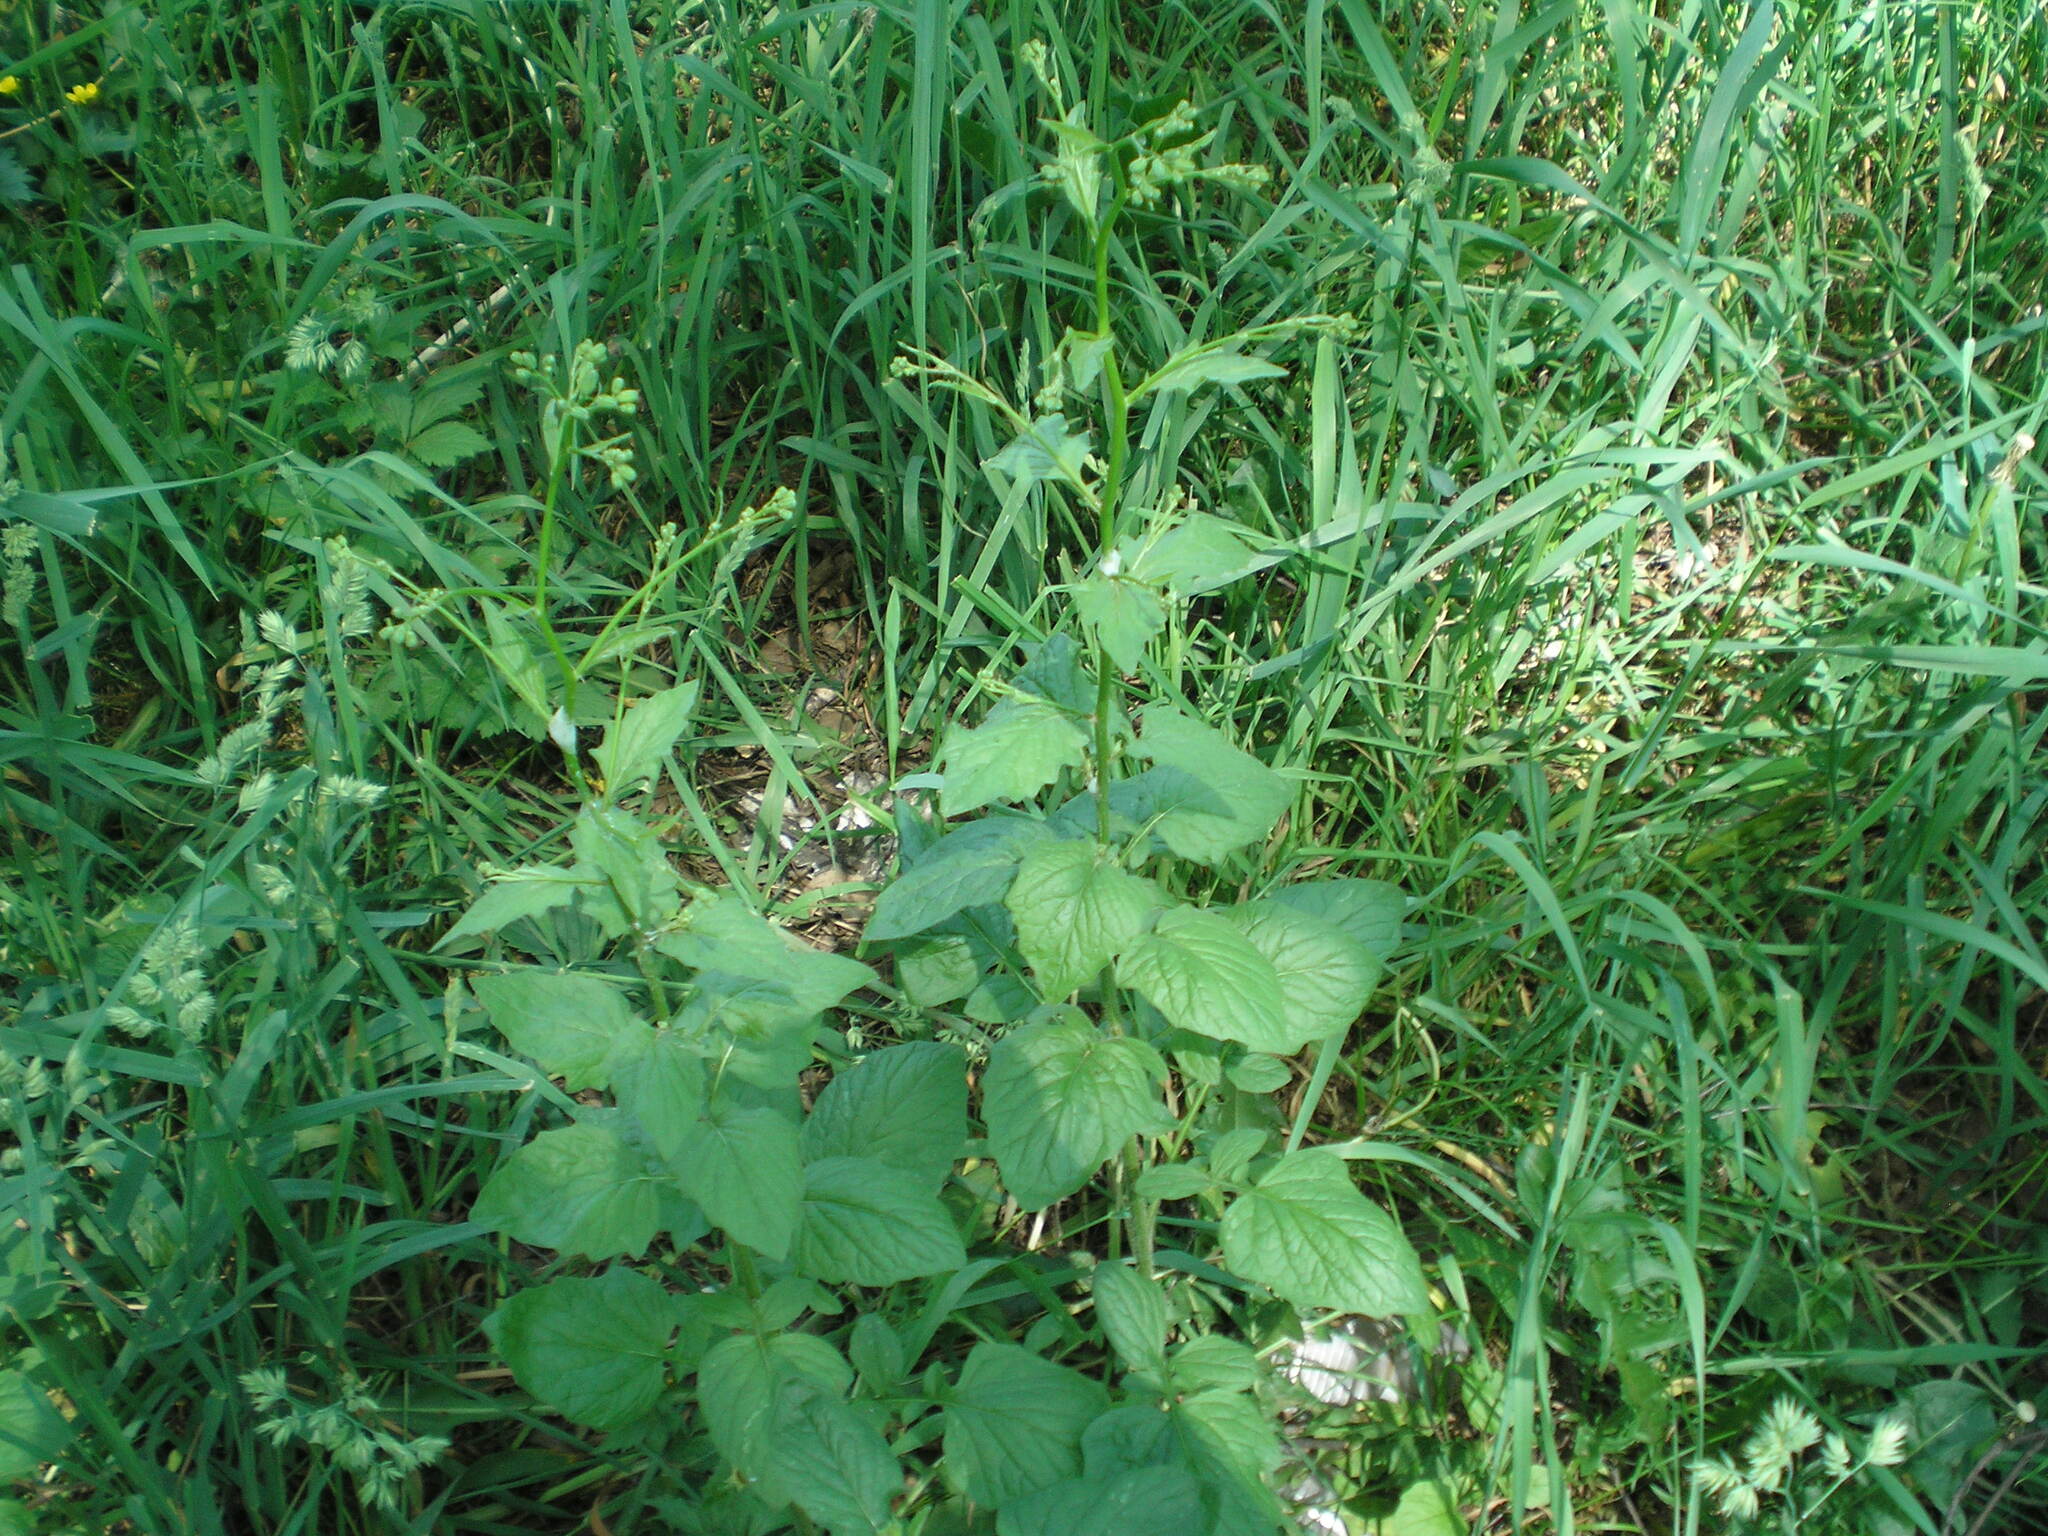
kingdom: Plantae
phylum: Tracheophyta
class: Magnoliopsida
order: Asterales
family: Asteraceae
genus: Lapsana
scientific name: Lapsana communis
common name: Nipplewort
